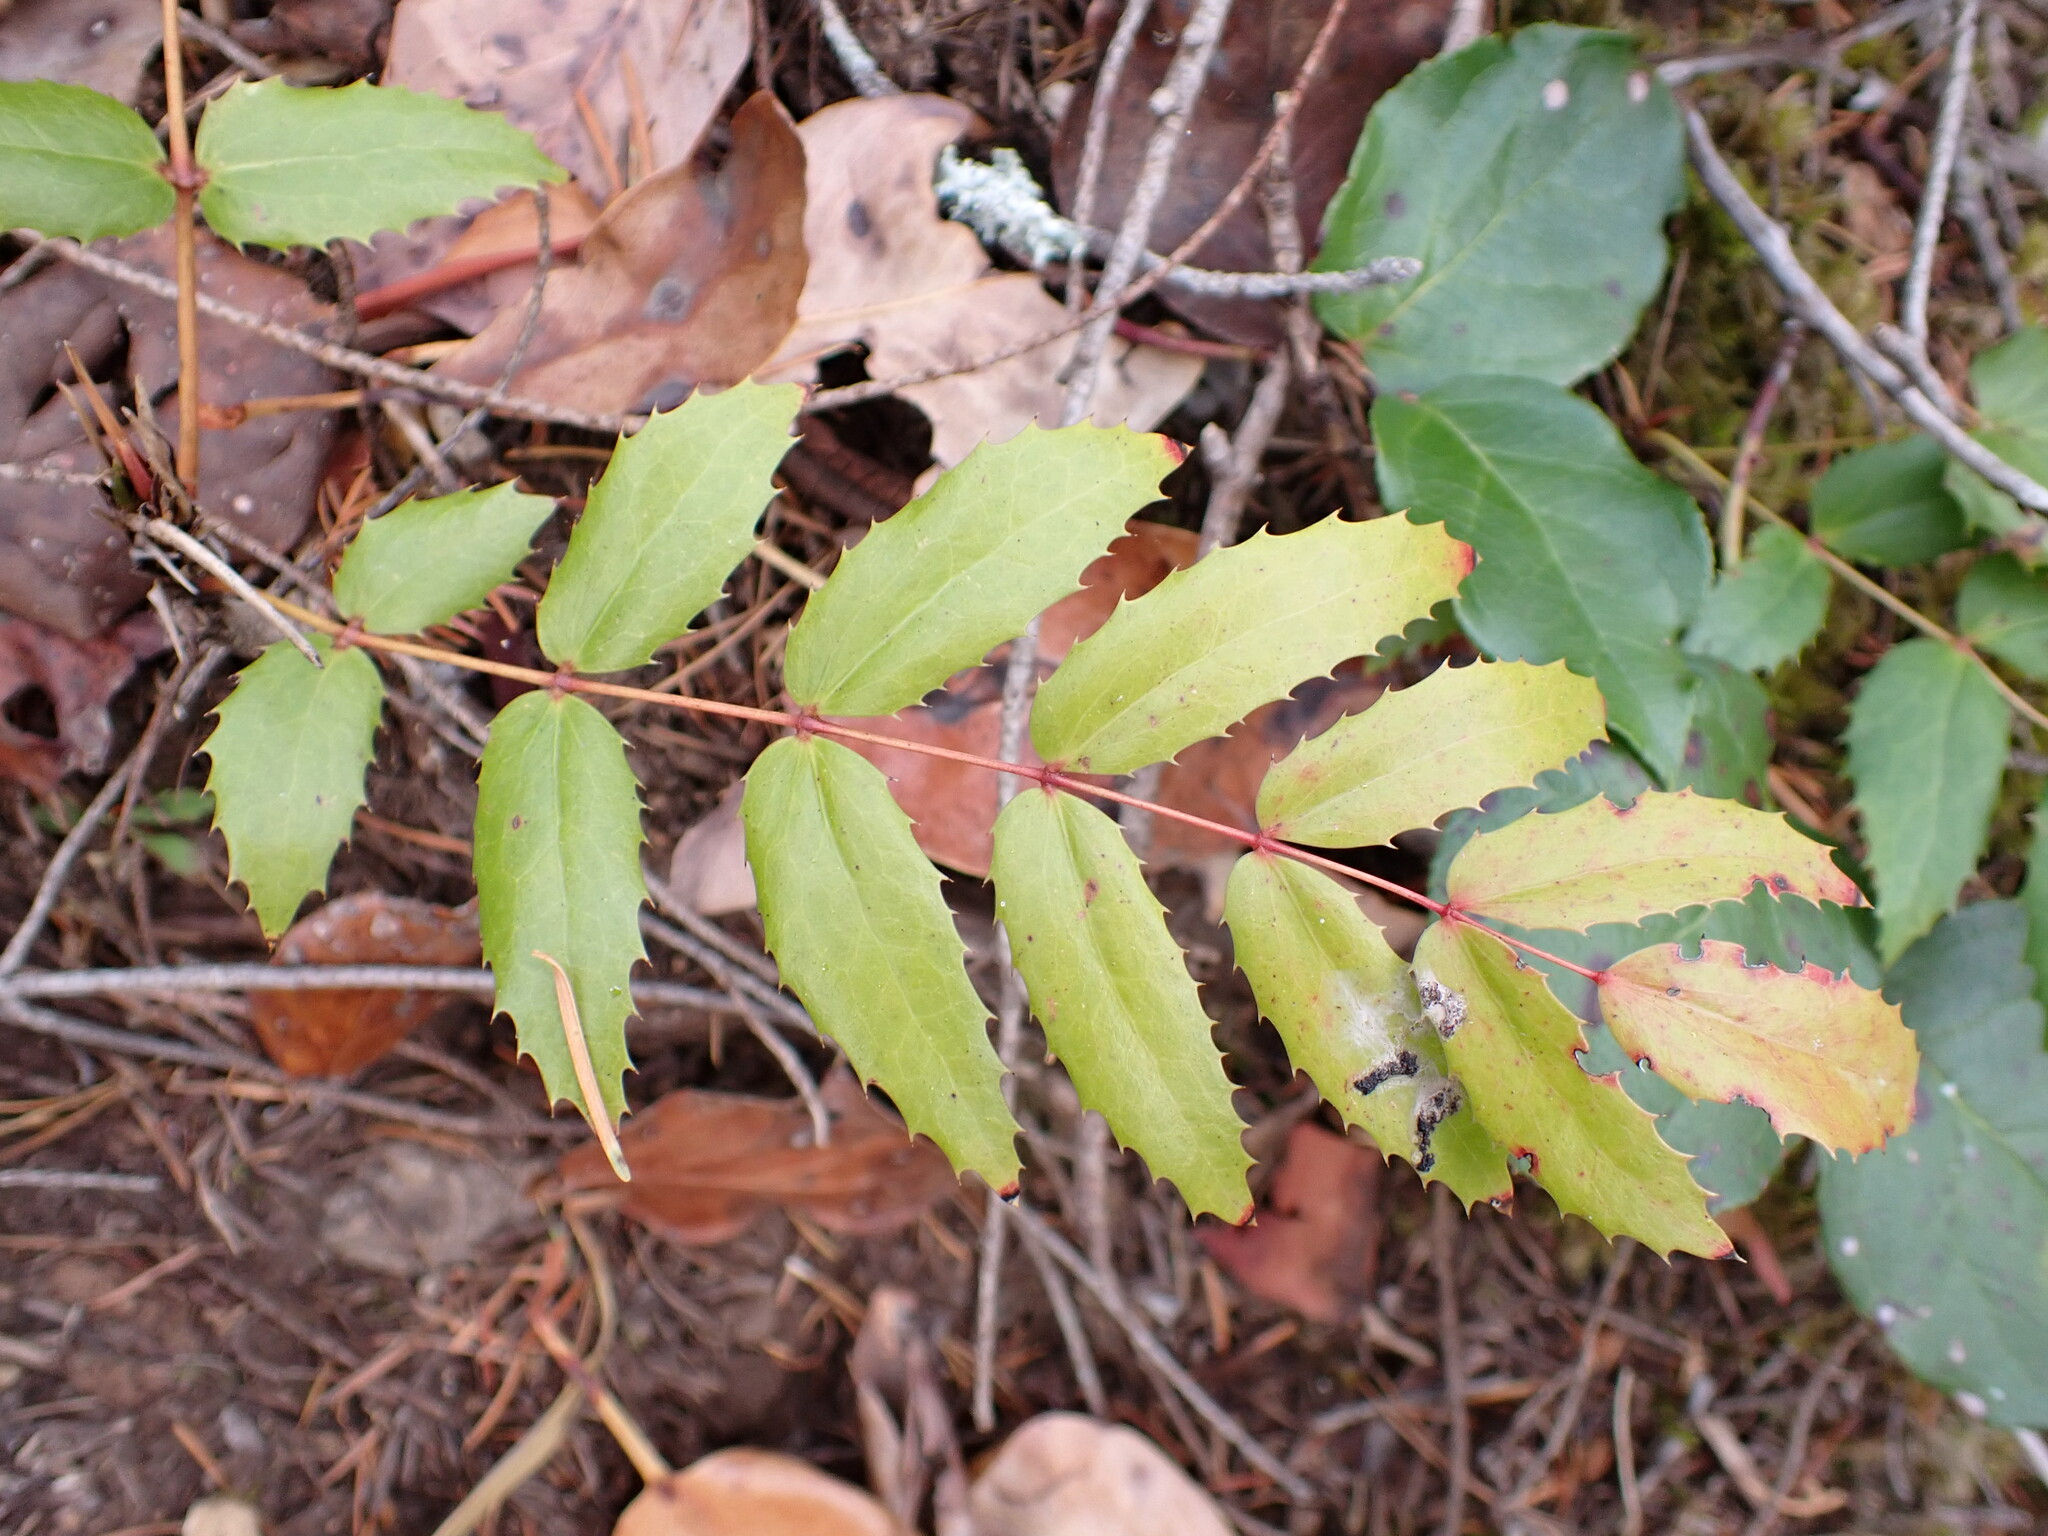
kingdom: Plantae
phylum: Tracheophyta
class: Magnoliopsida
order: Ranunculales
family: Berberidaceae
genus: Mahonia
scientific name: Mahonia nervosa
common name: Cascade oregon-grape
